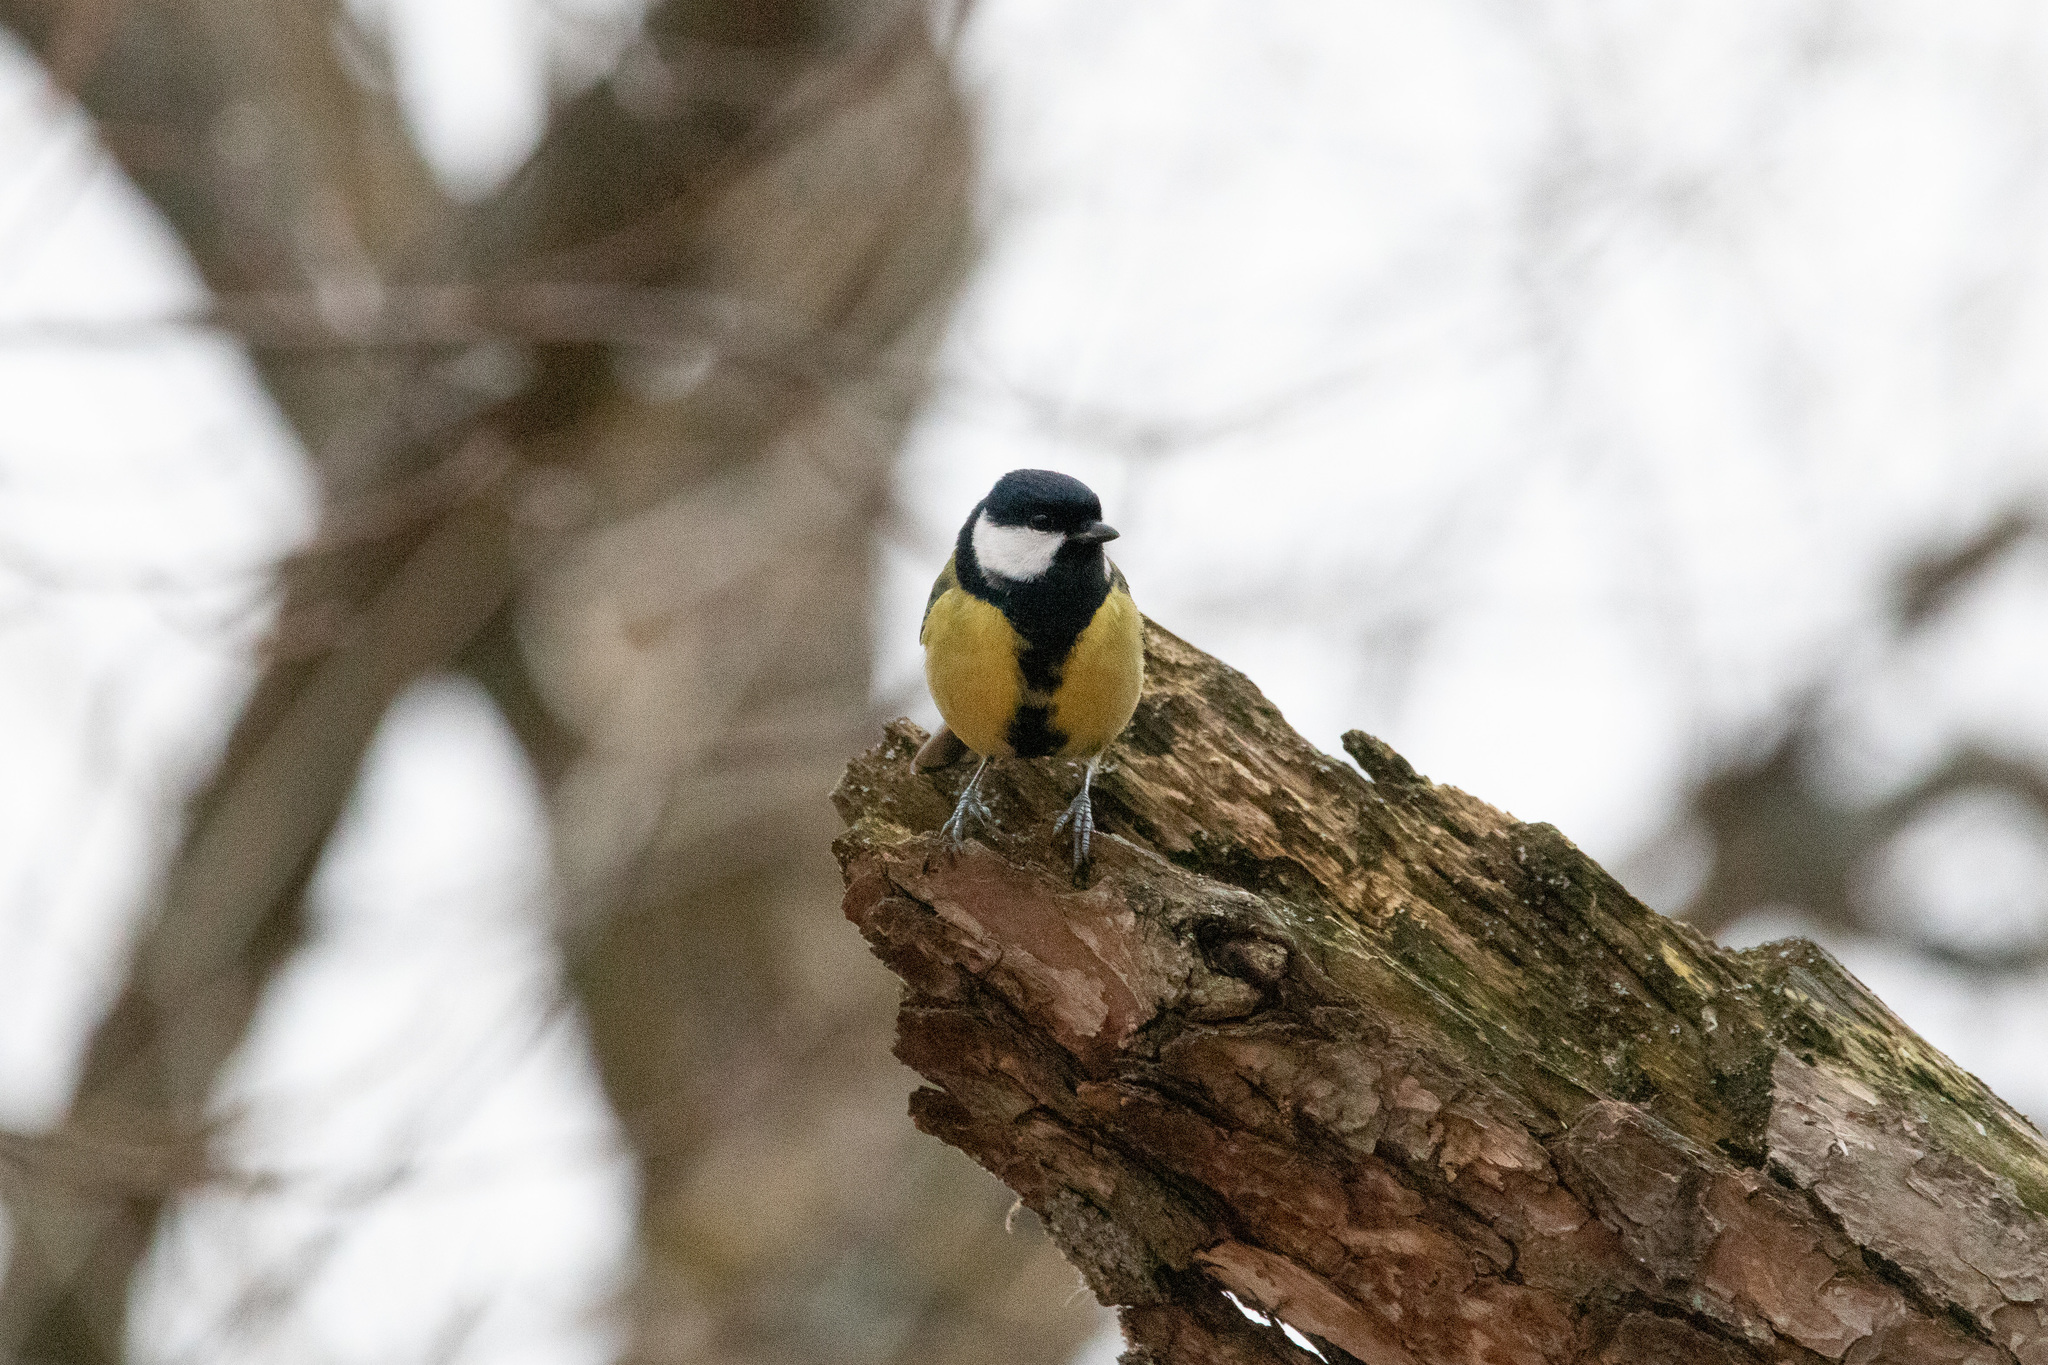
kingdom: Animalia
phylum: Chordata
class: Aves
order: Passeriformes
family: Paridae
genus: Parus
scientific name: Parus major
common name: Great tit
